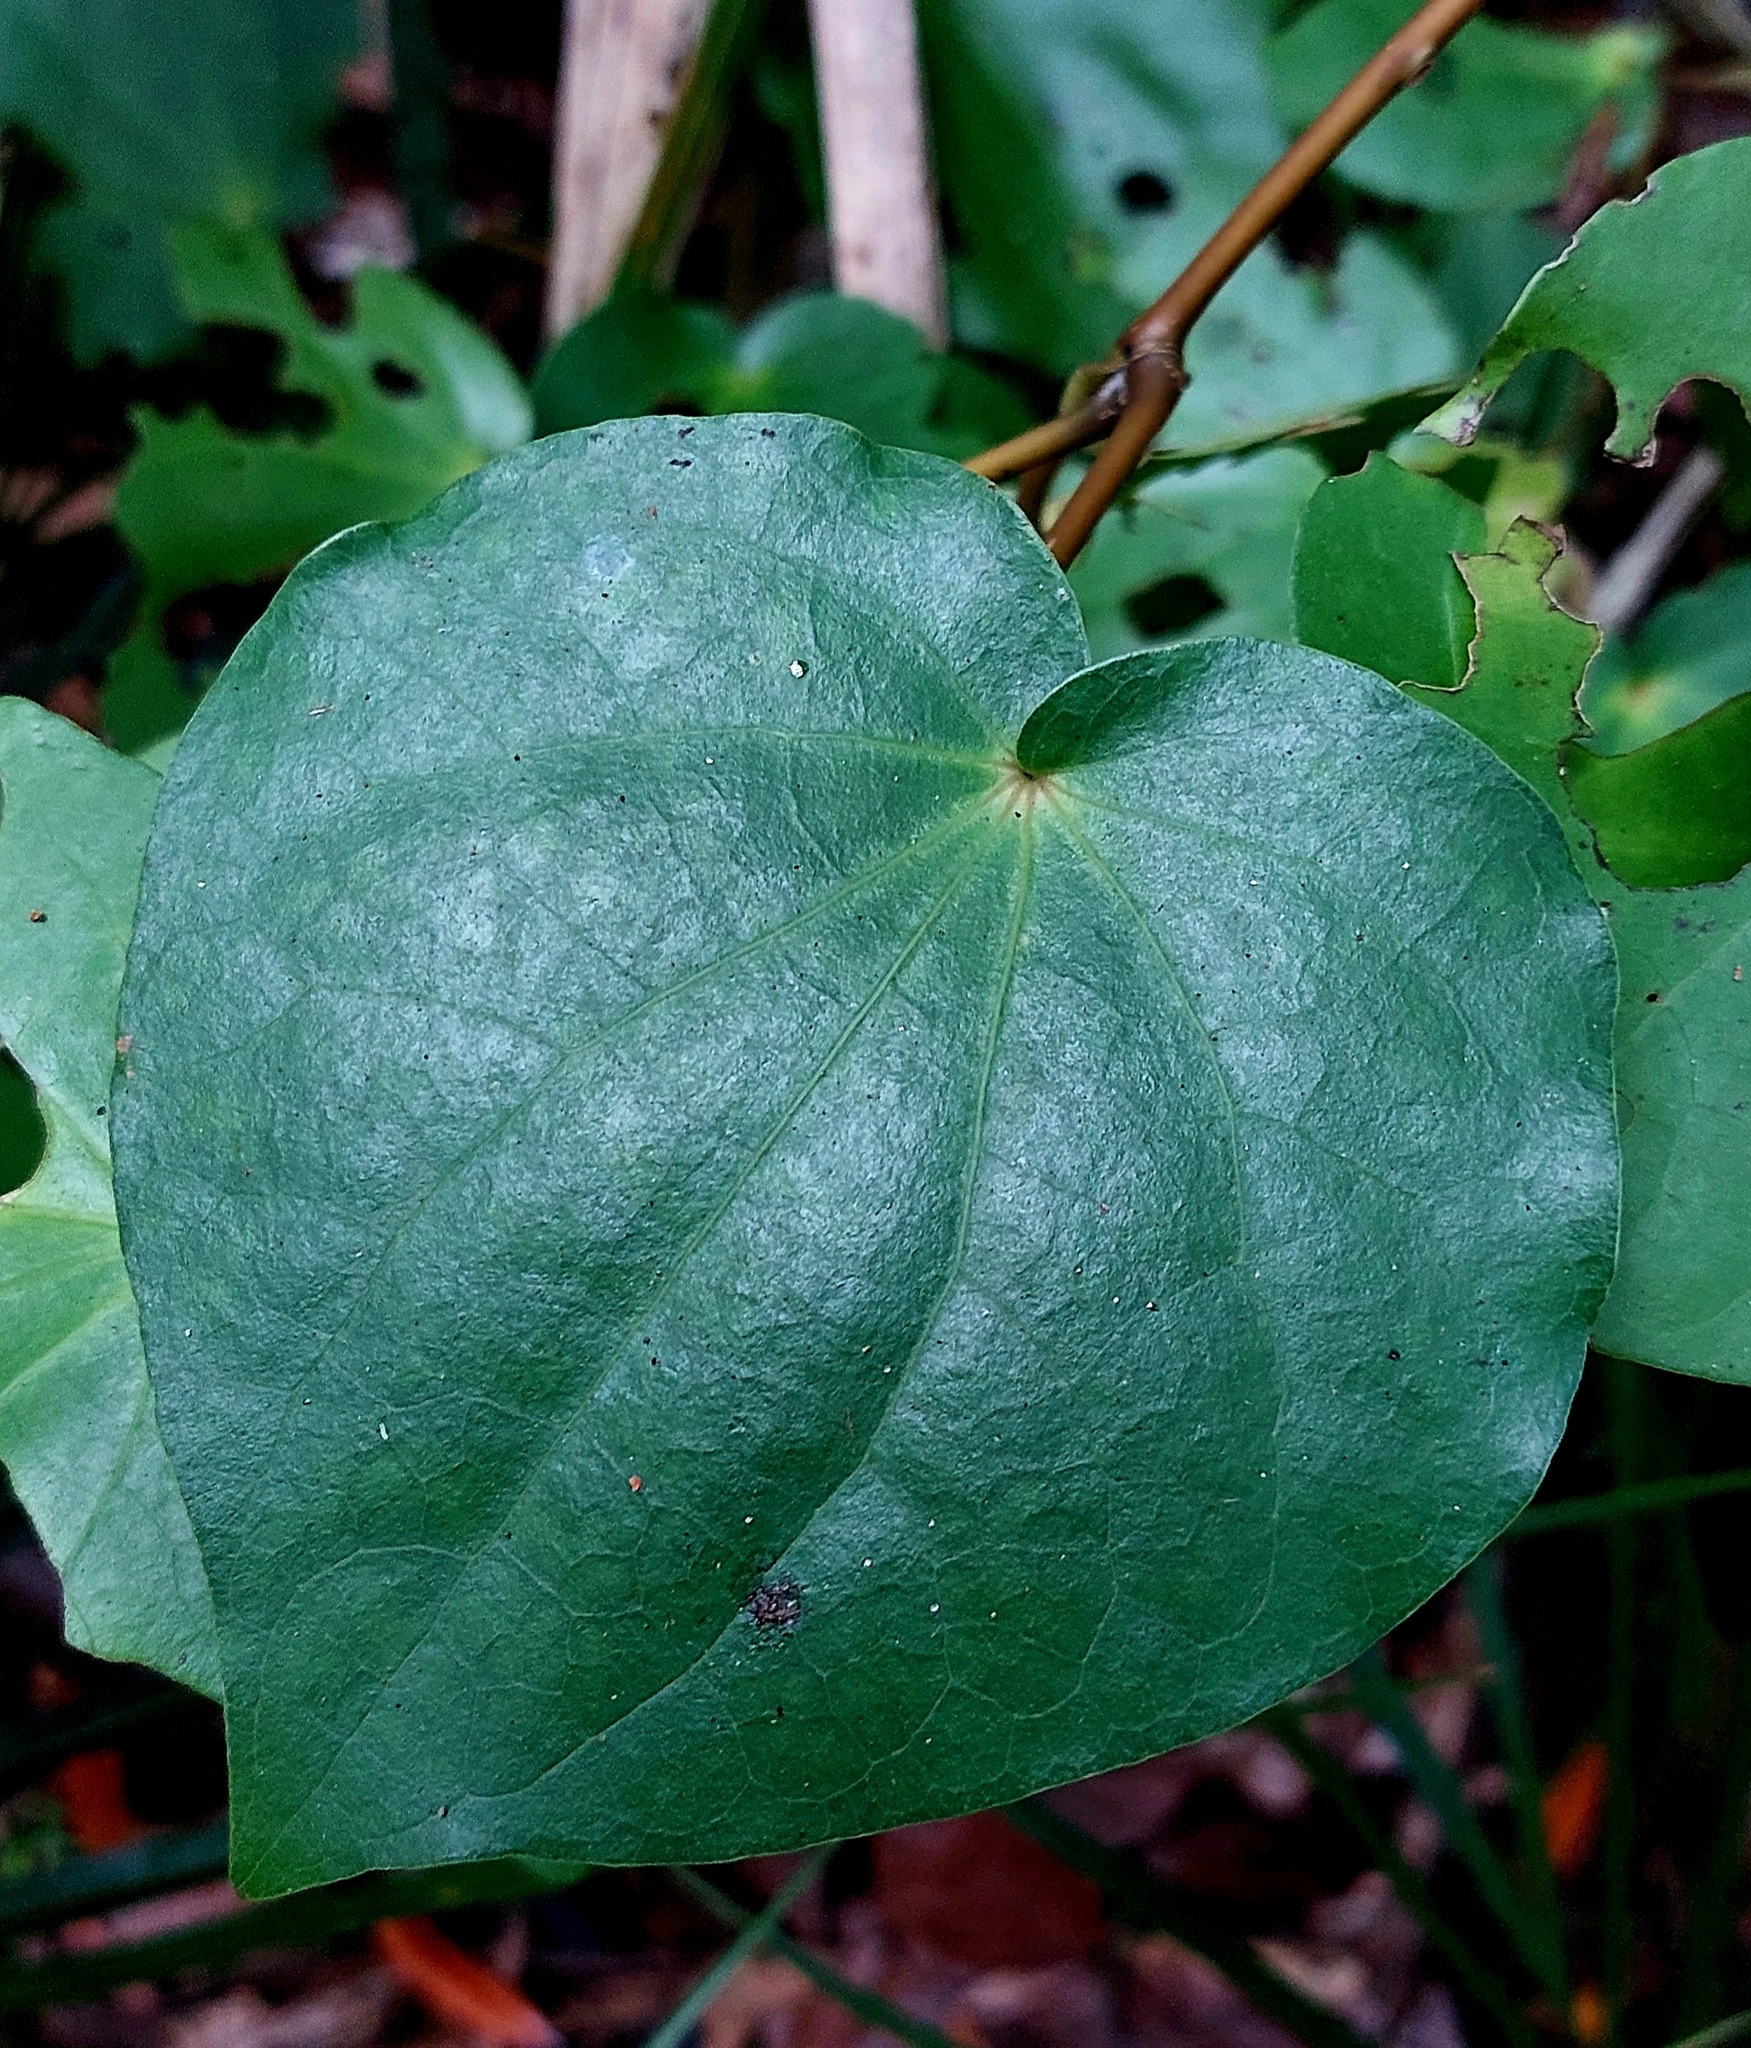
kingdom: Plantae
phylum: Tracheophyta
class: Magnoliopsida
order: Piperales
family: Piperaceae
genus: Macropiper
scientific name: Macropiper excelsum
